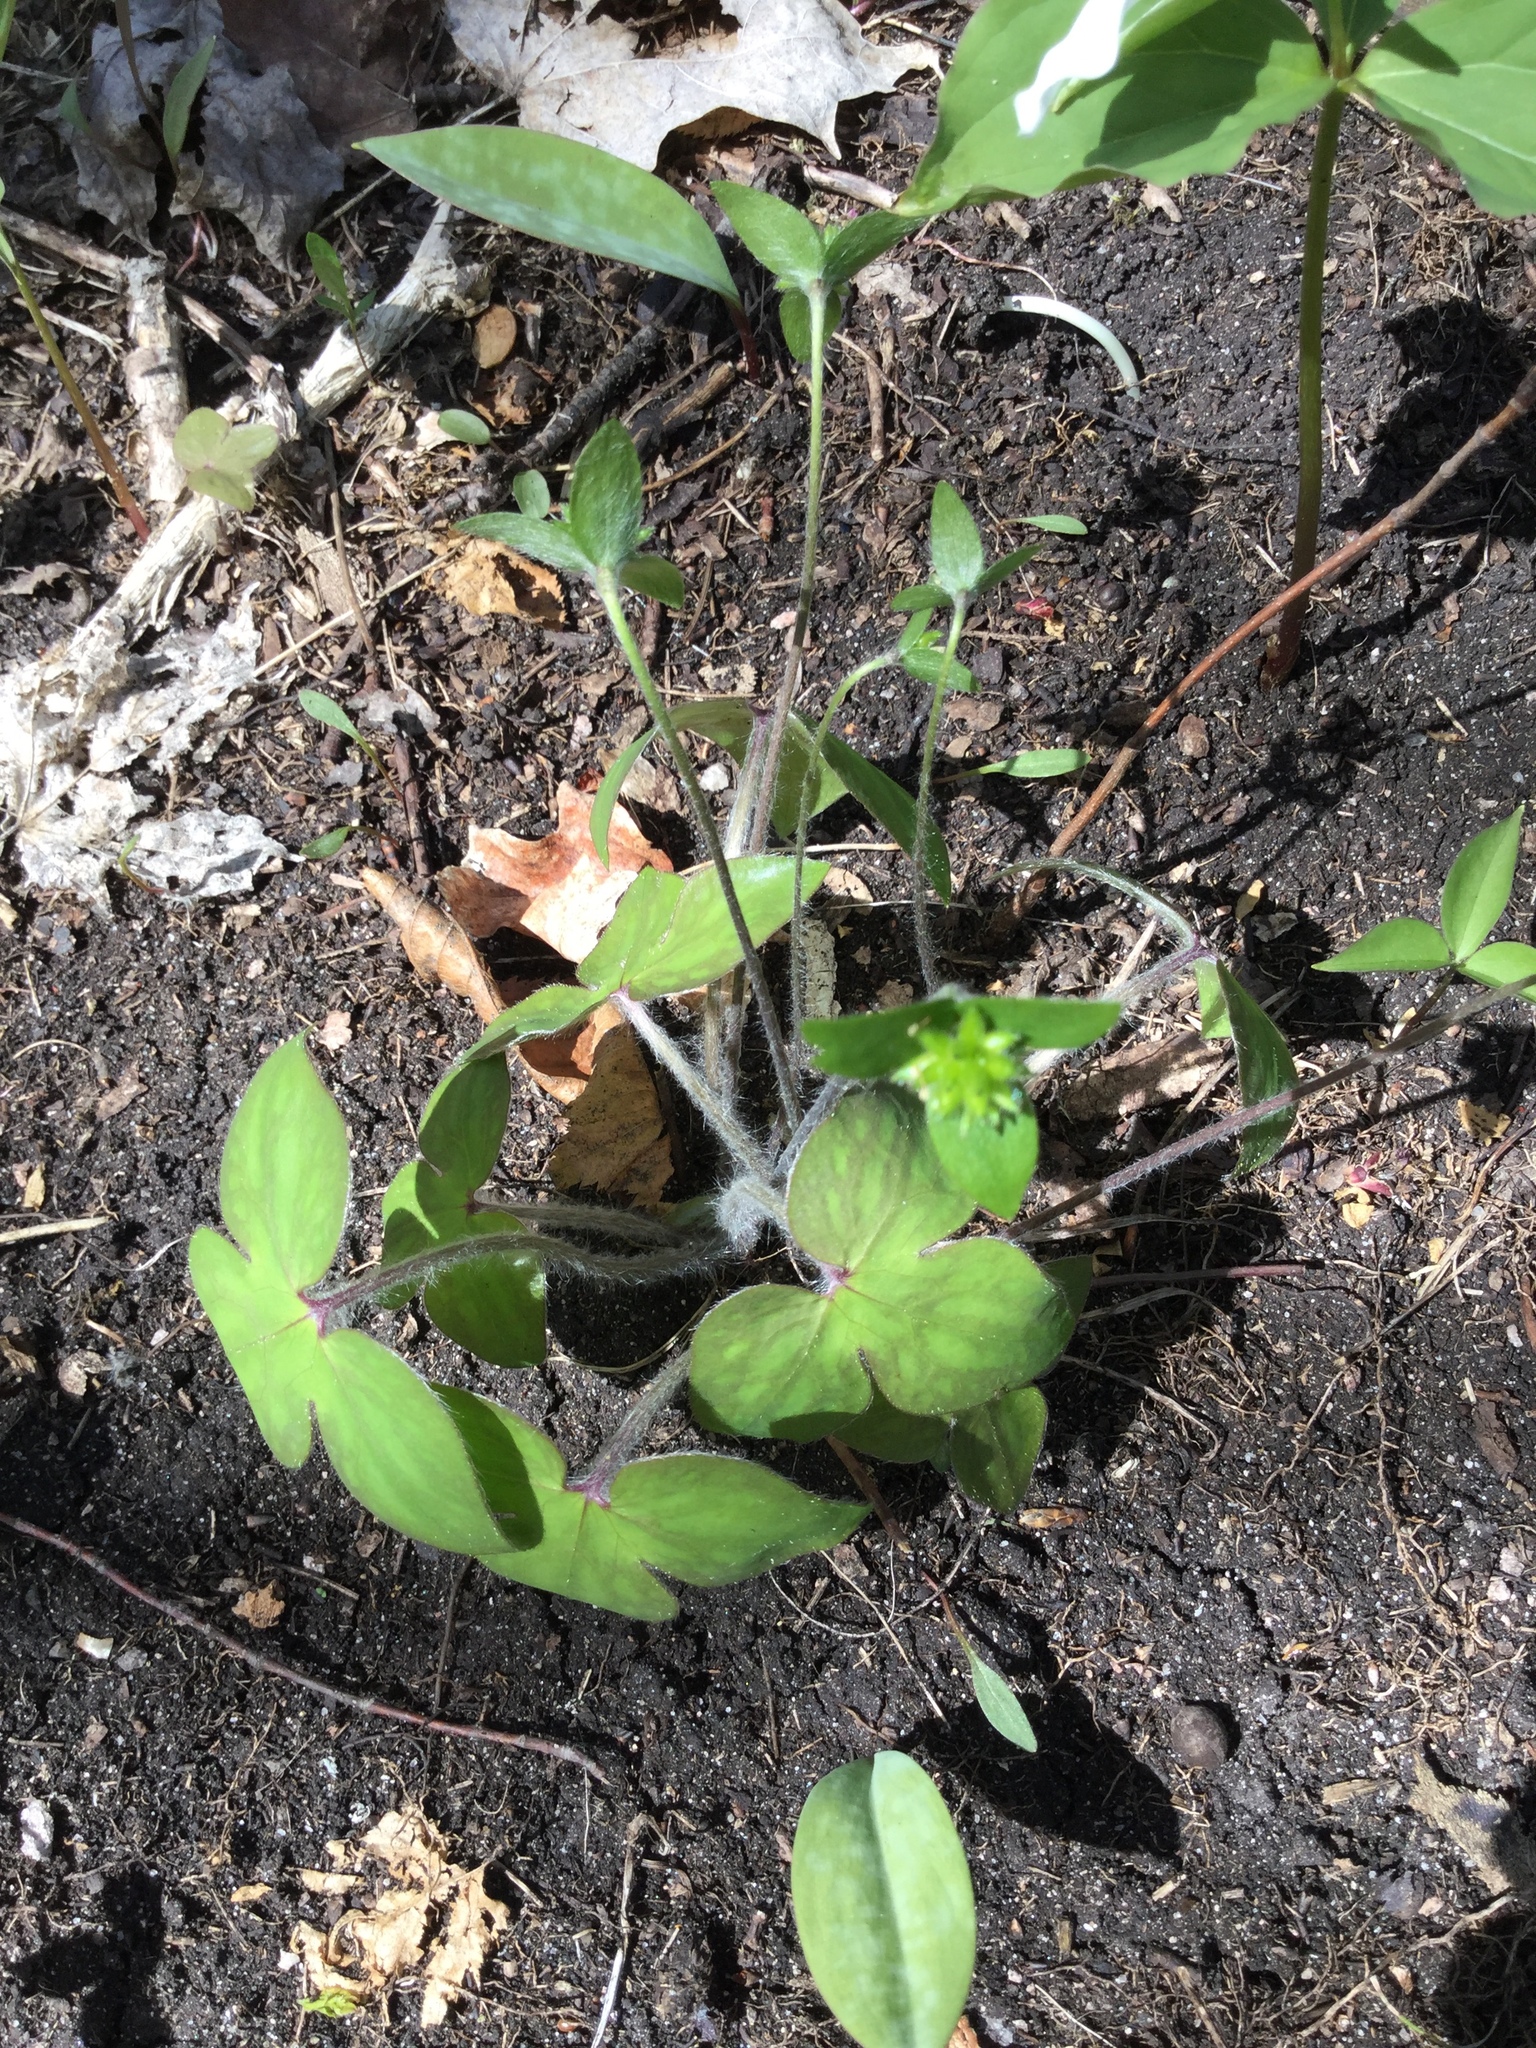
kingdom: Plantae
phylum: Tracheophyta
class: Magnoliopsida
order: Ranunculales
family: Ranunculaceae
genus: Hepatica
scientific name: Hepatica acutiloba
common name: Sharp-lobed hepatica
